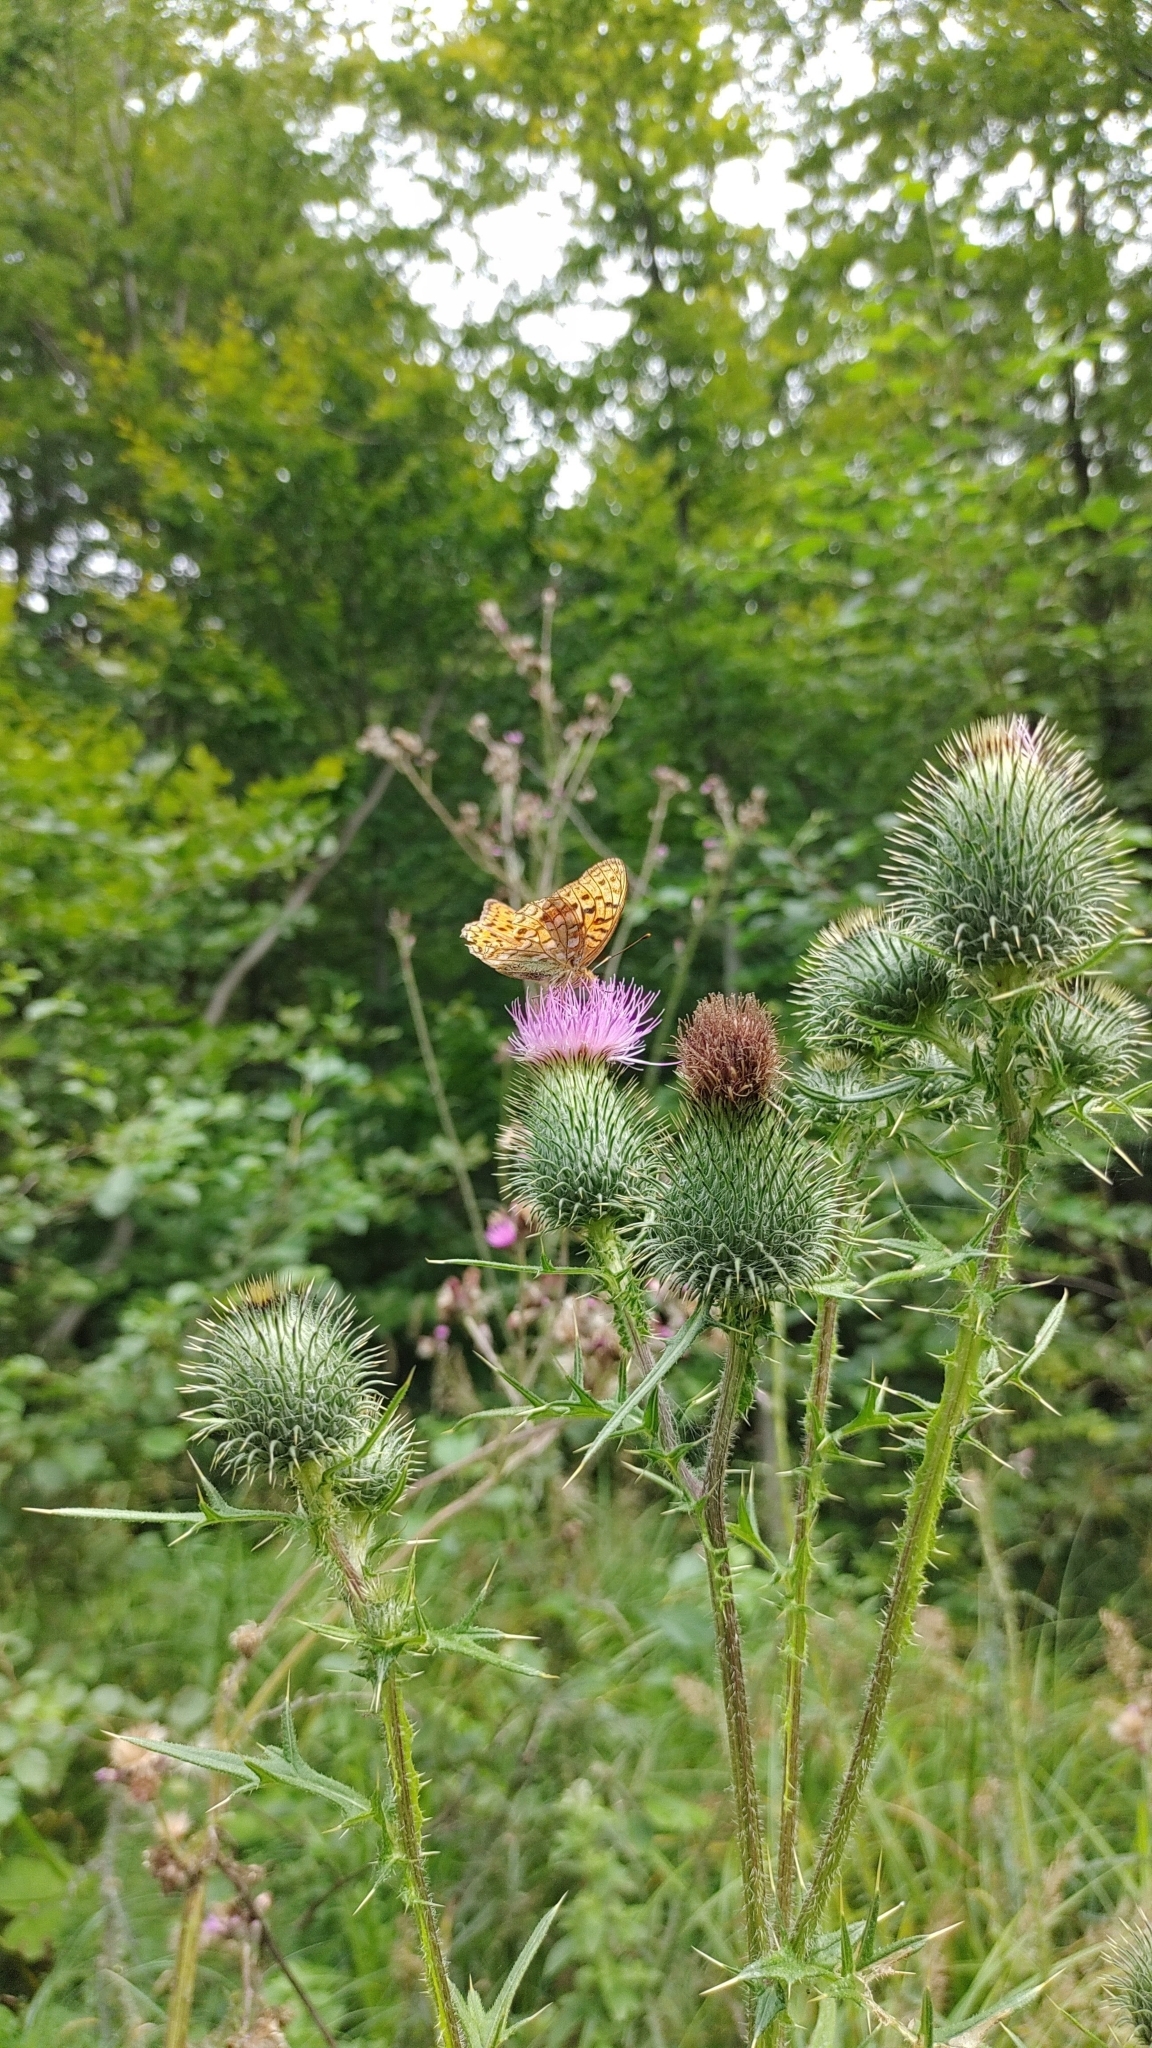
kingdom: Plantae
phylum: Tracheophyta
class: Magnoliopsida
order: Asterales
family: Asteraceae
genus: Cirsium
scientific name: Cirsium vulgare
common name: Bull thistle
